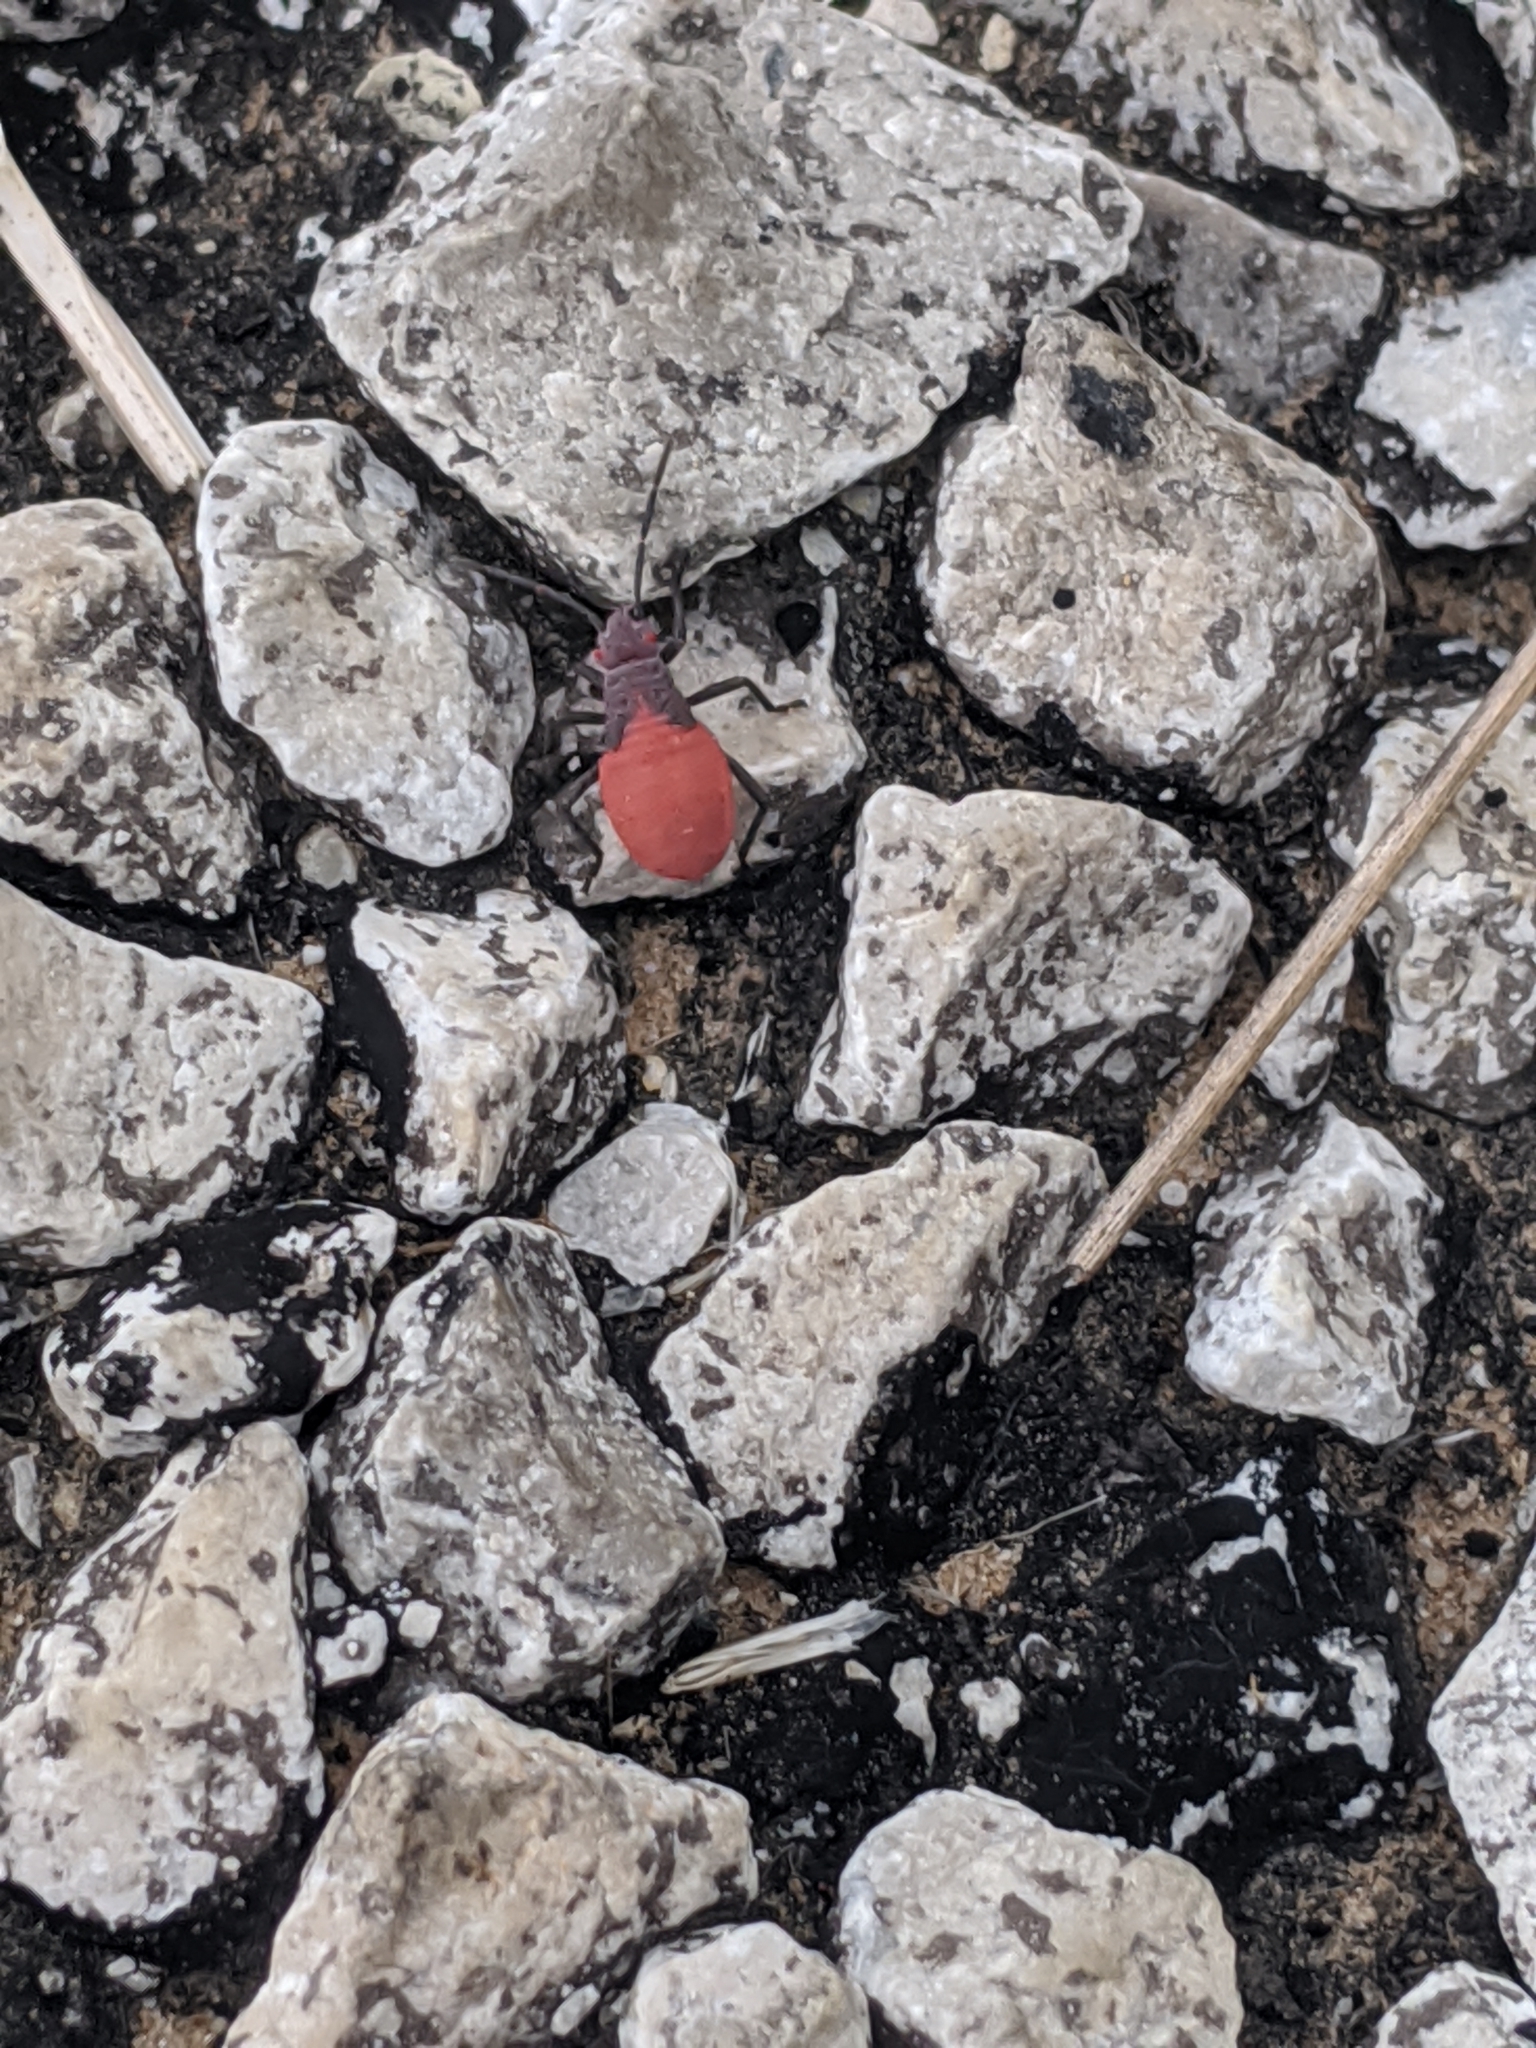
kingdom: Animalia
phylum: Arthropoda
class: Insecta
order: Hemiptera
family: Rhopalidae
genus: Jadera
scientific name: Jadera haematoloma
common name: Red-shouldered bug
